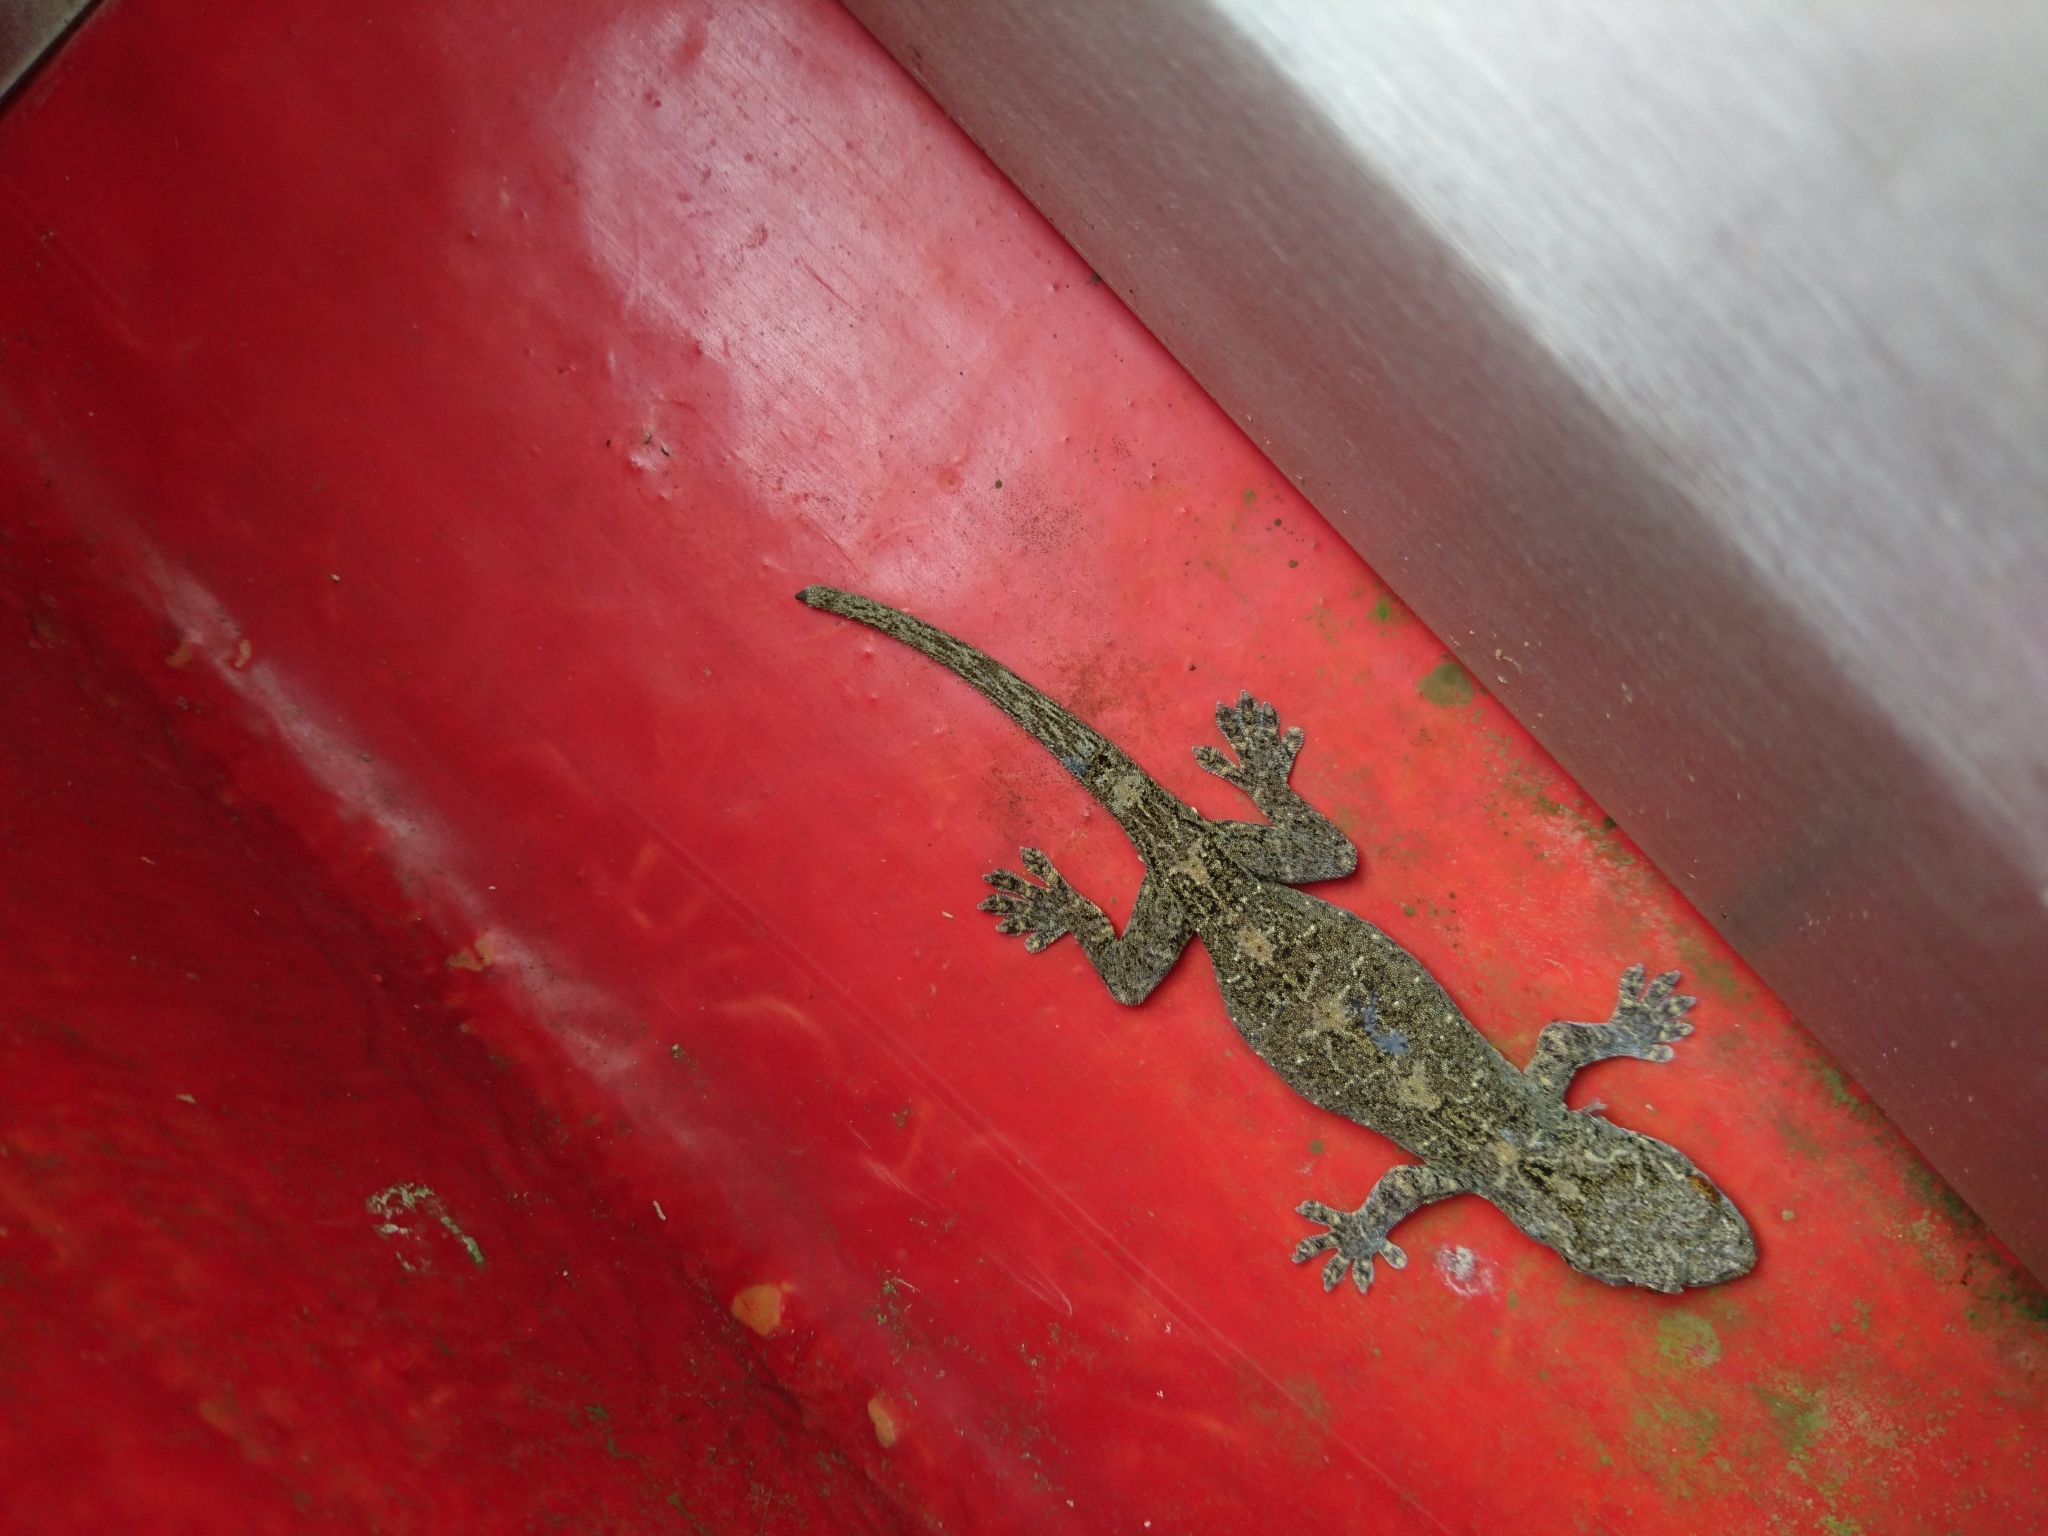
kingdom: Animalia
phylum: Chordata
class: Squamata
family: Gekkonidae
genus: Gekko
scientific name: Gekko chinensis
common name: Gray's chinese gecko
